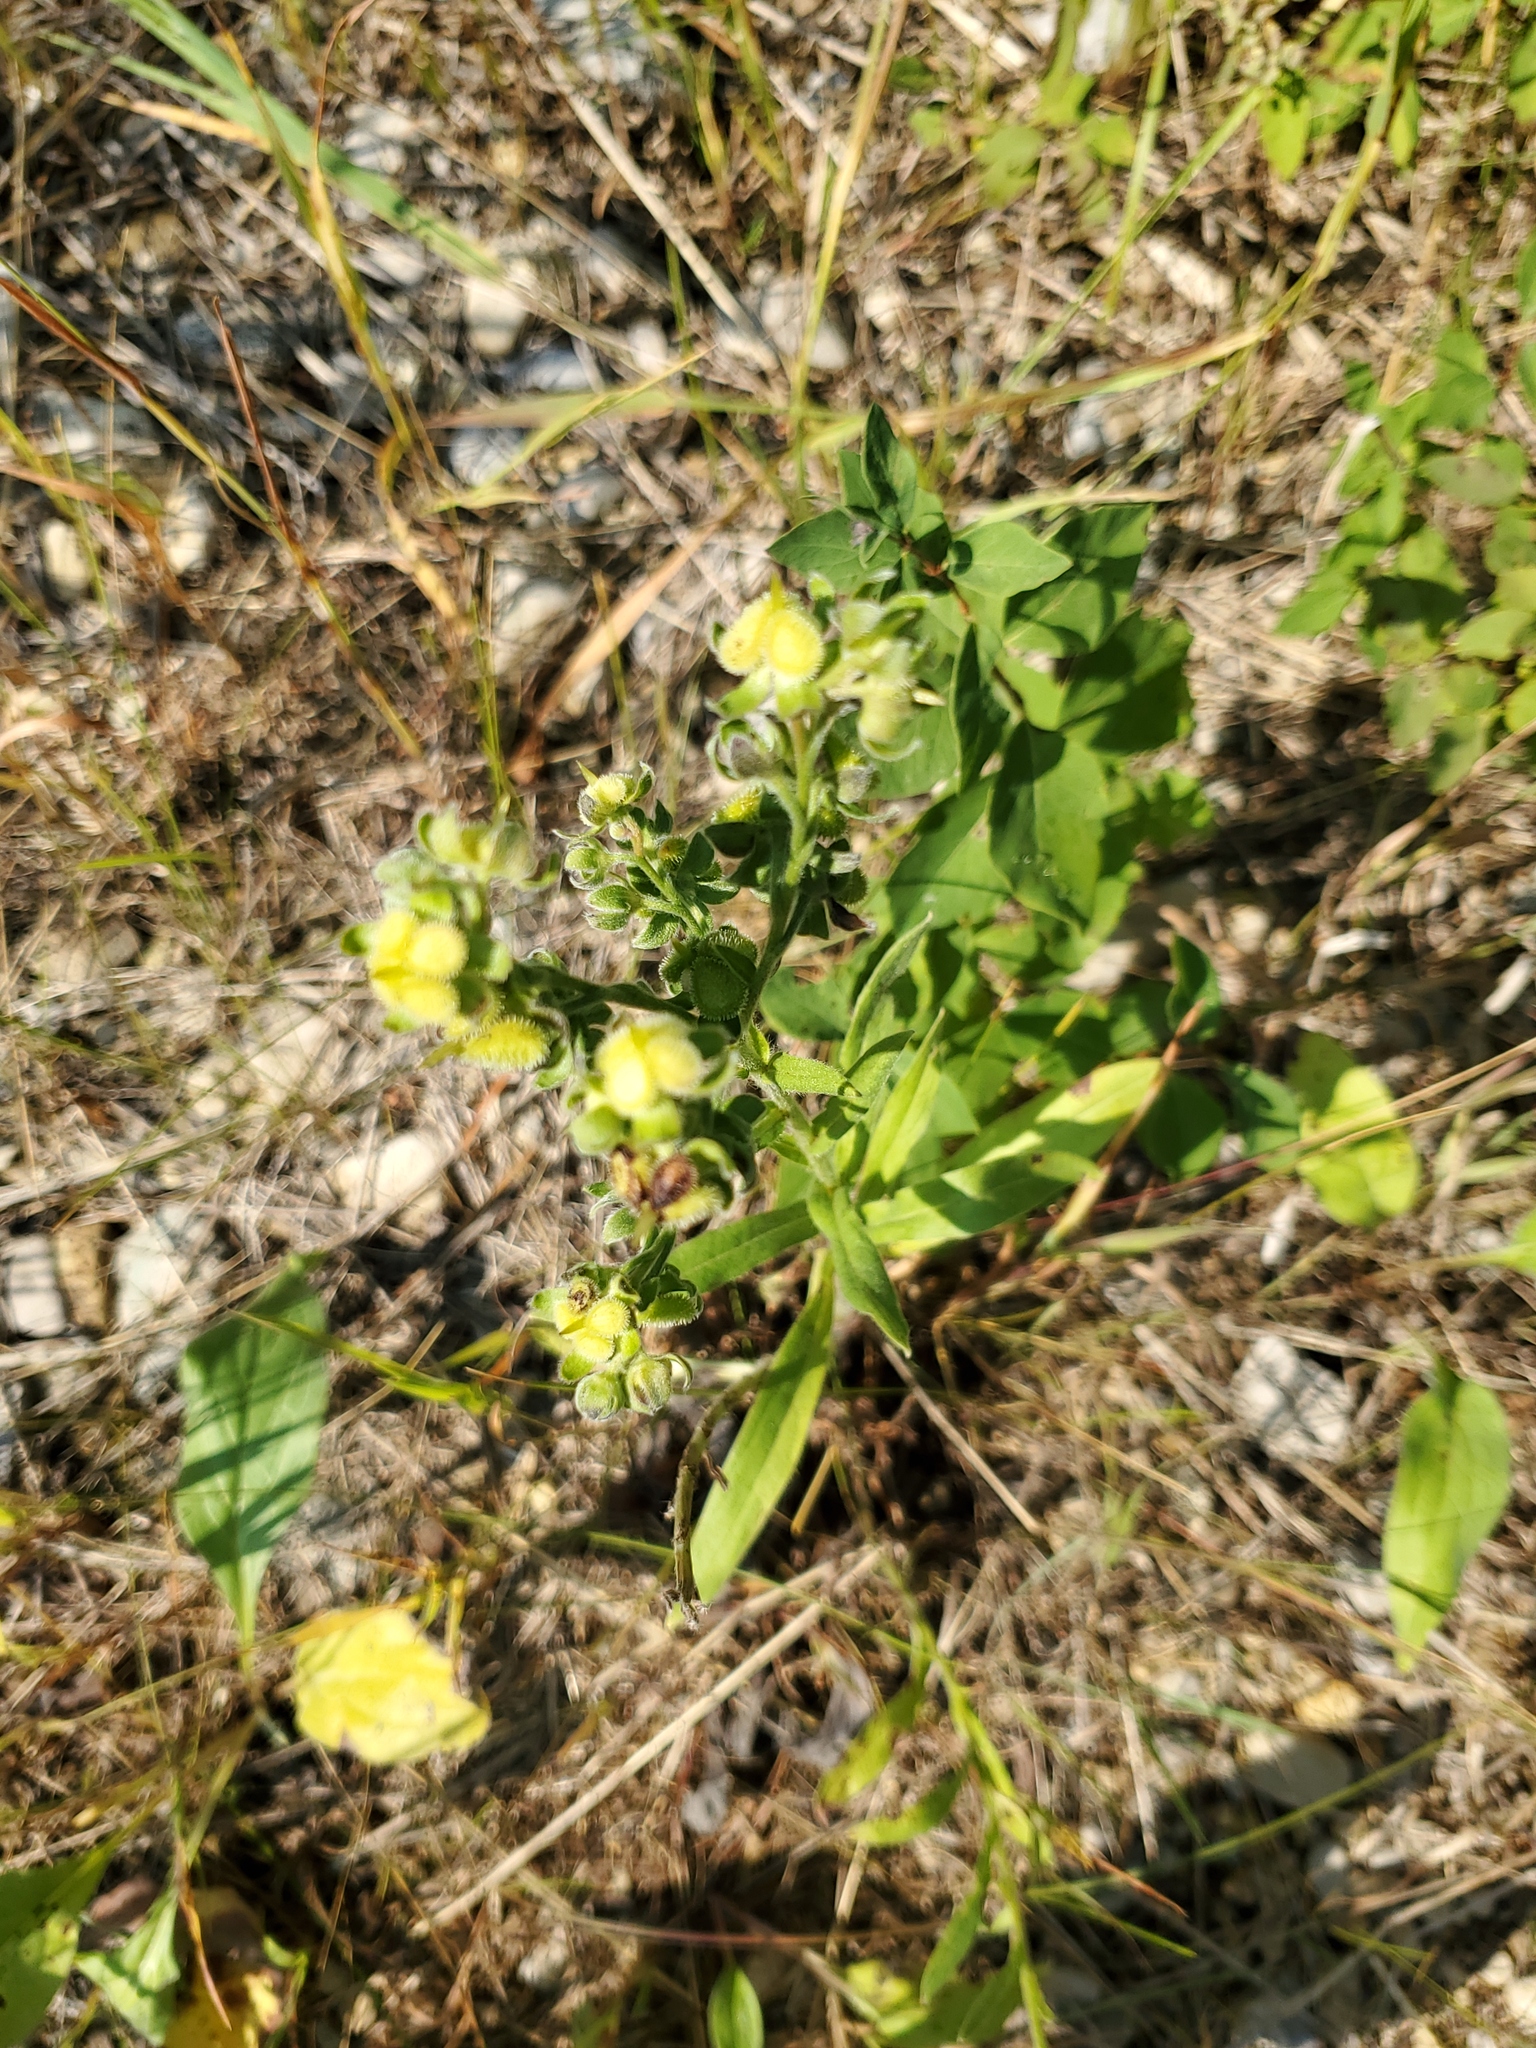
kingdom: Plantae
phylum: Tracheophyta
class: Magnoliopsida
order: Boraginales
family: Boraginaceae
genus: Cynoglossum
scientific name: Cynoglossum officinale
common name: Hound's-tongue
